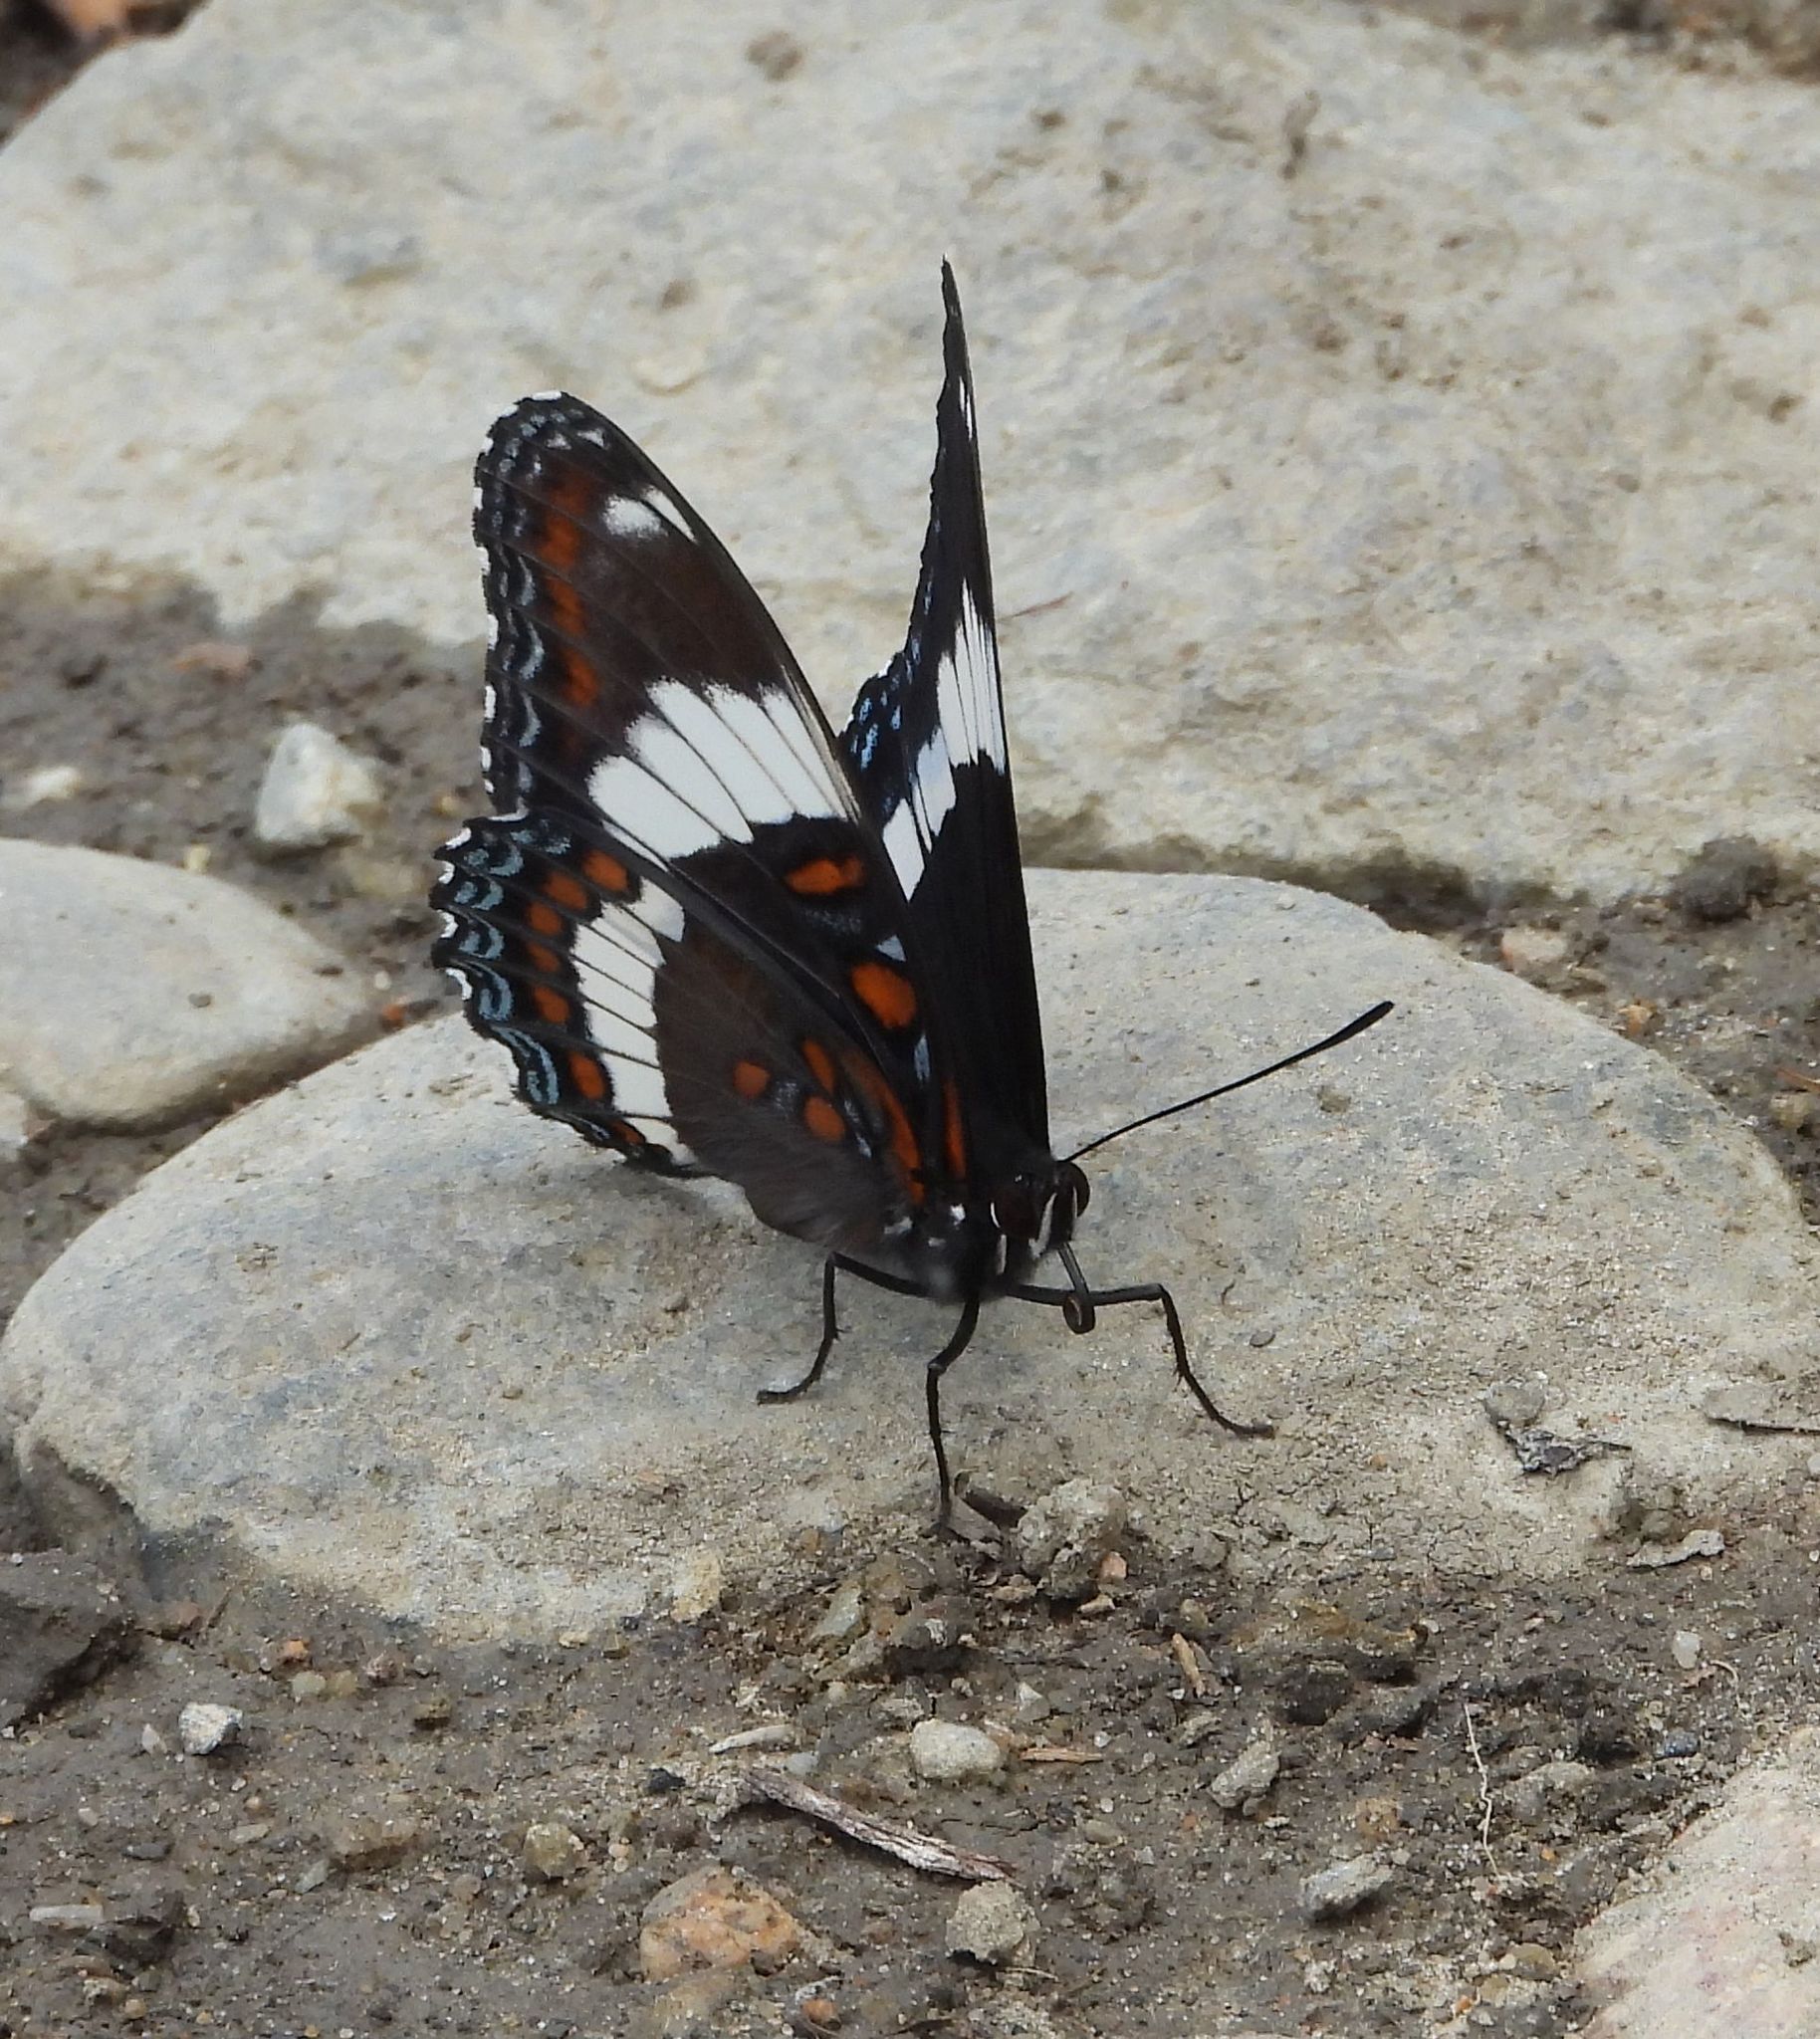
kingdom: Animalia
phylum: Arthropoda
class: Insecta
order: Lepidoptera
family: Nymphalidae
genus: Limenitis
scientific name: Limenitis arthemis
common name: Red-spotted admiral
